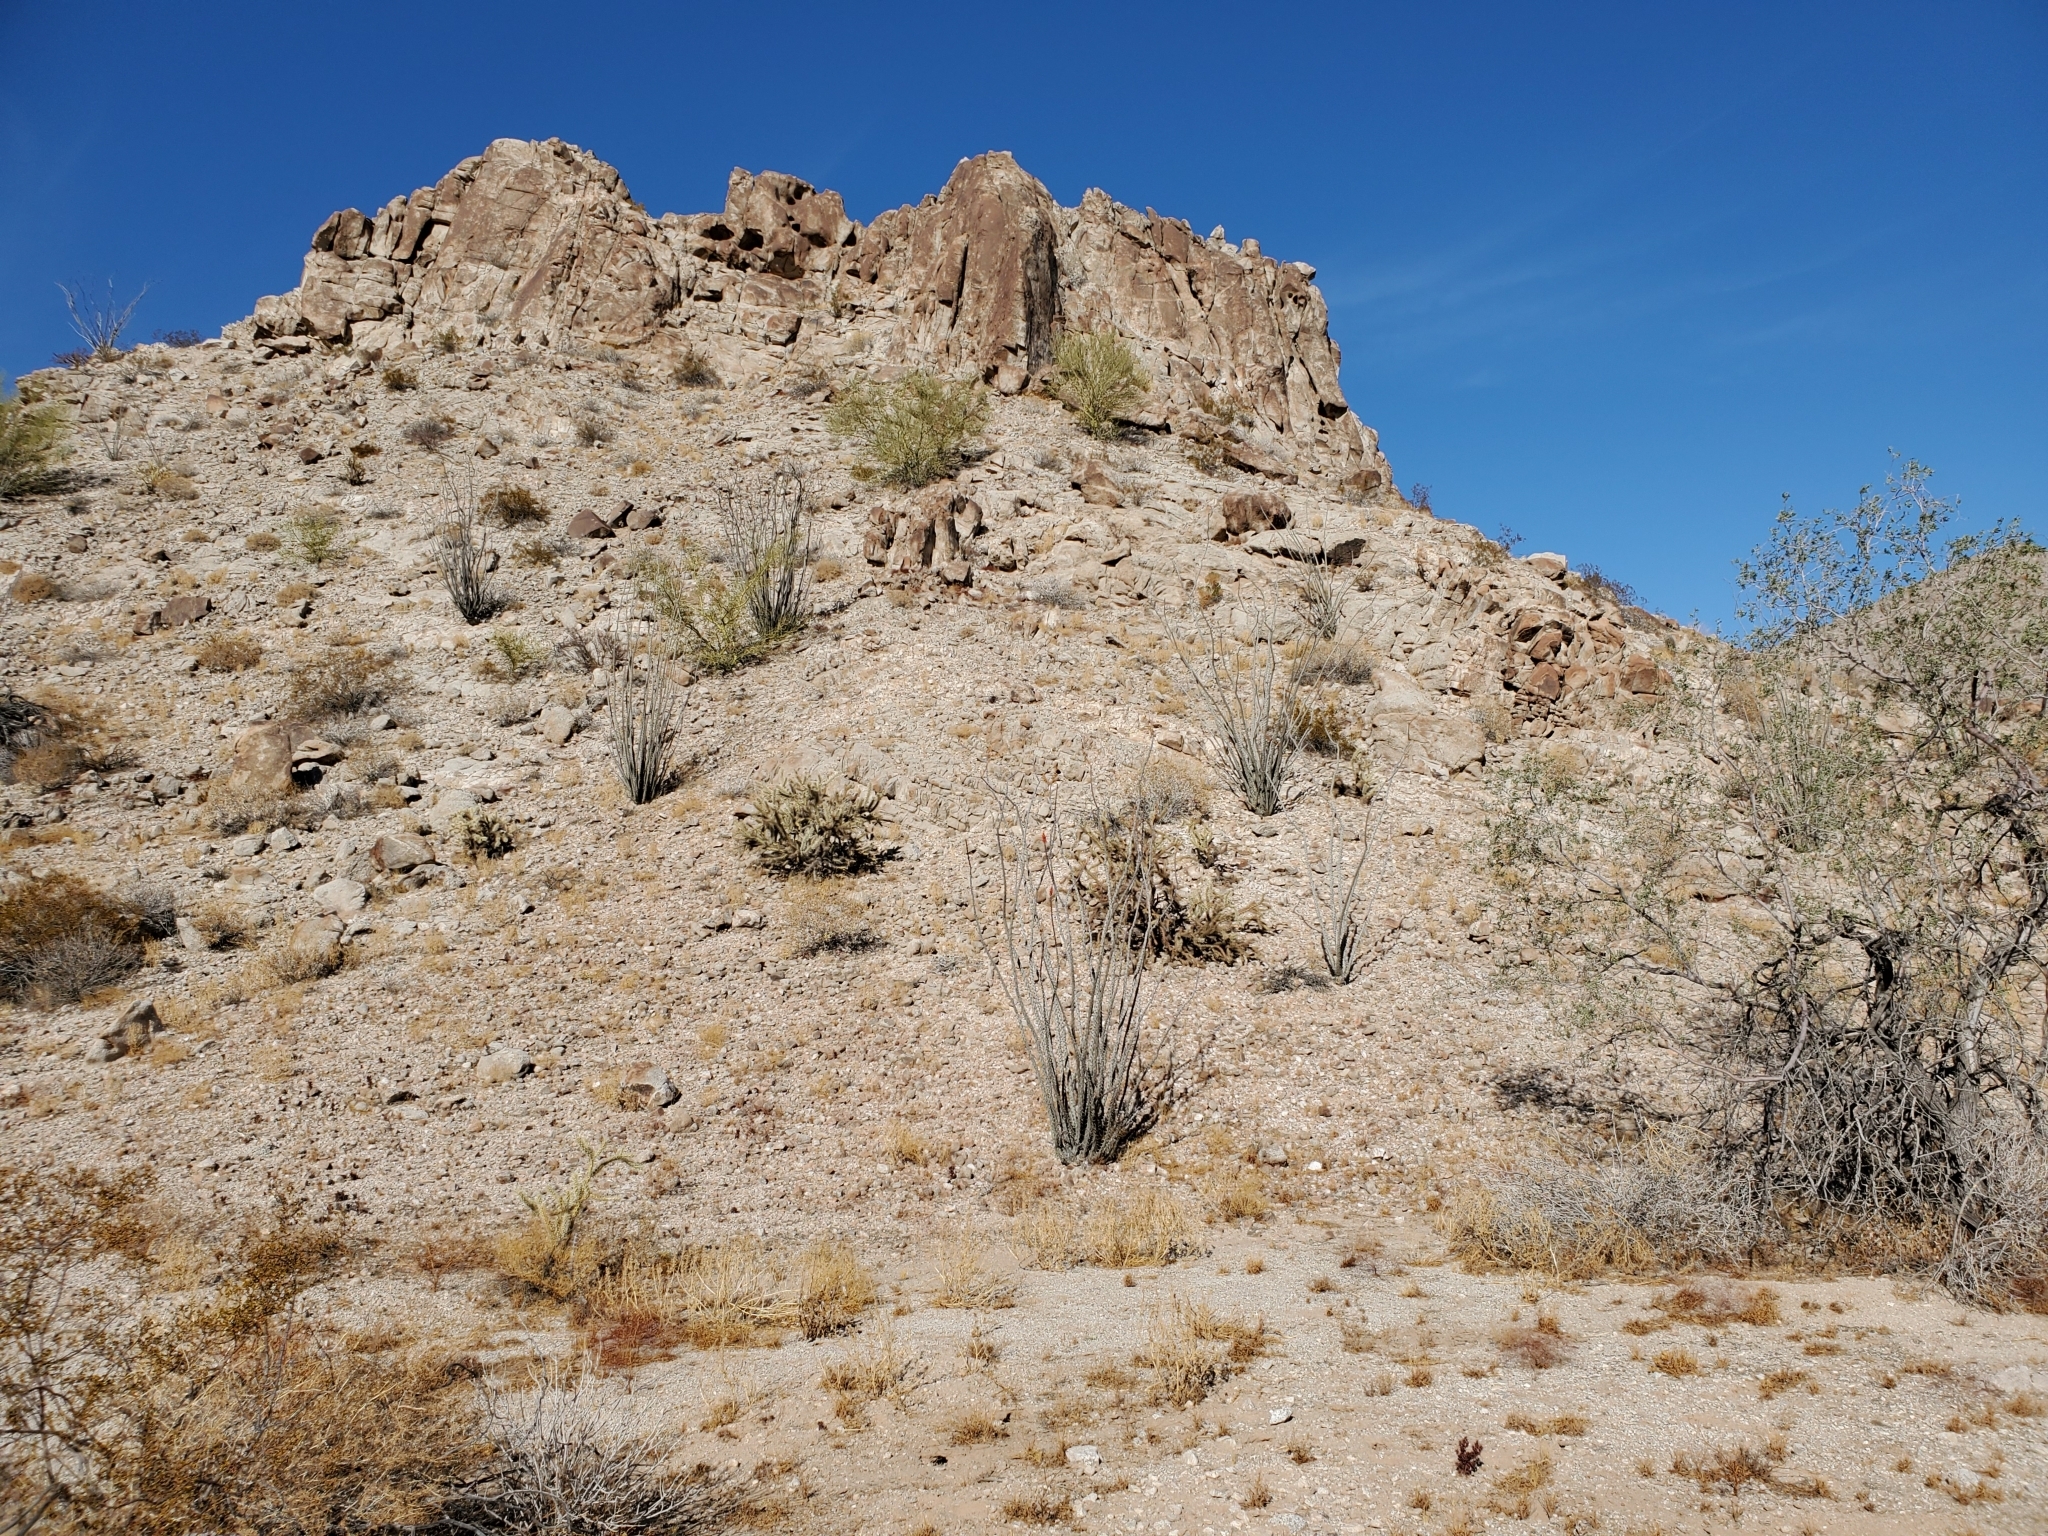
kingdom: Plantae
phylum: Tracheophyta
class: Magnoliopsida
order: Sapindales
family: Burseraceae
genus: Bursera
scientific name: Bursera microphylla
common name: Elephant tree
